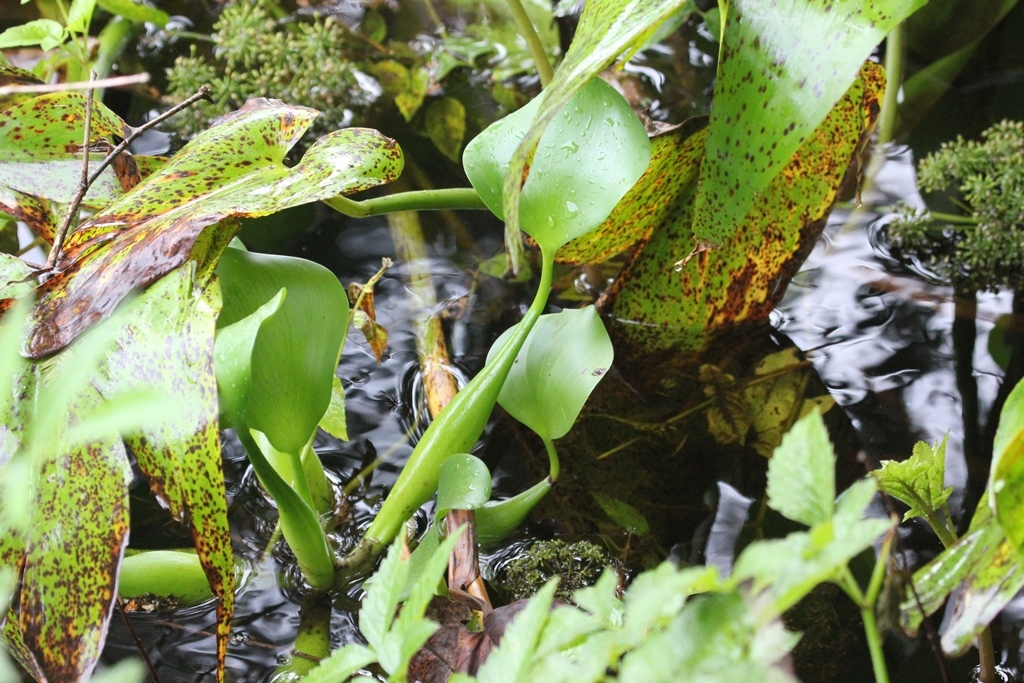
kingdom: Plantae
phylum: Tracheophyta
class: Liliopsida
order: Commelinales
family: Pontederiaceae
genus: Pontederia
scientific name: Pontederia crassipes
